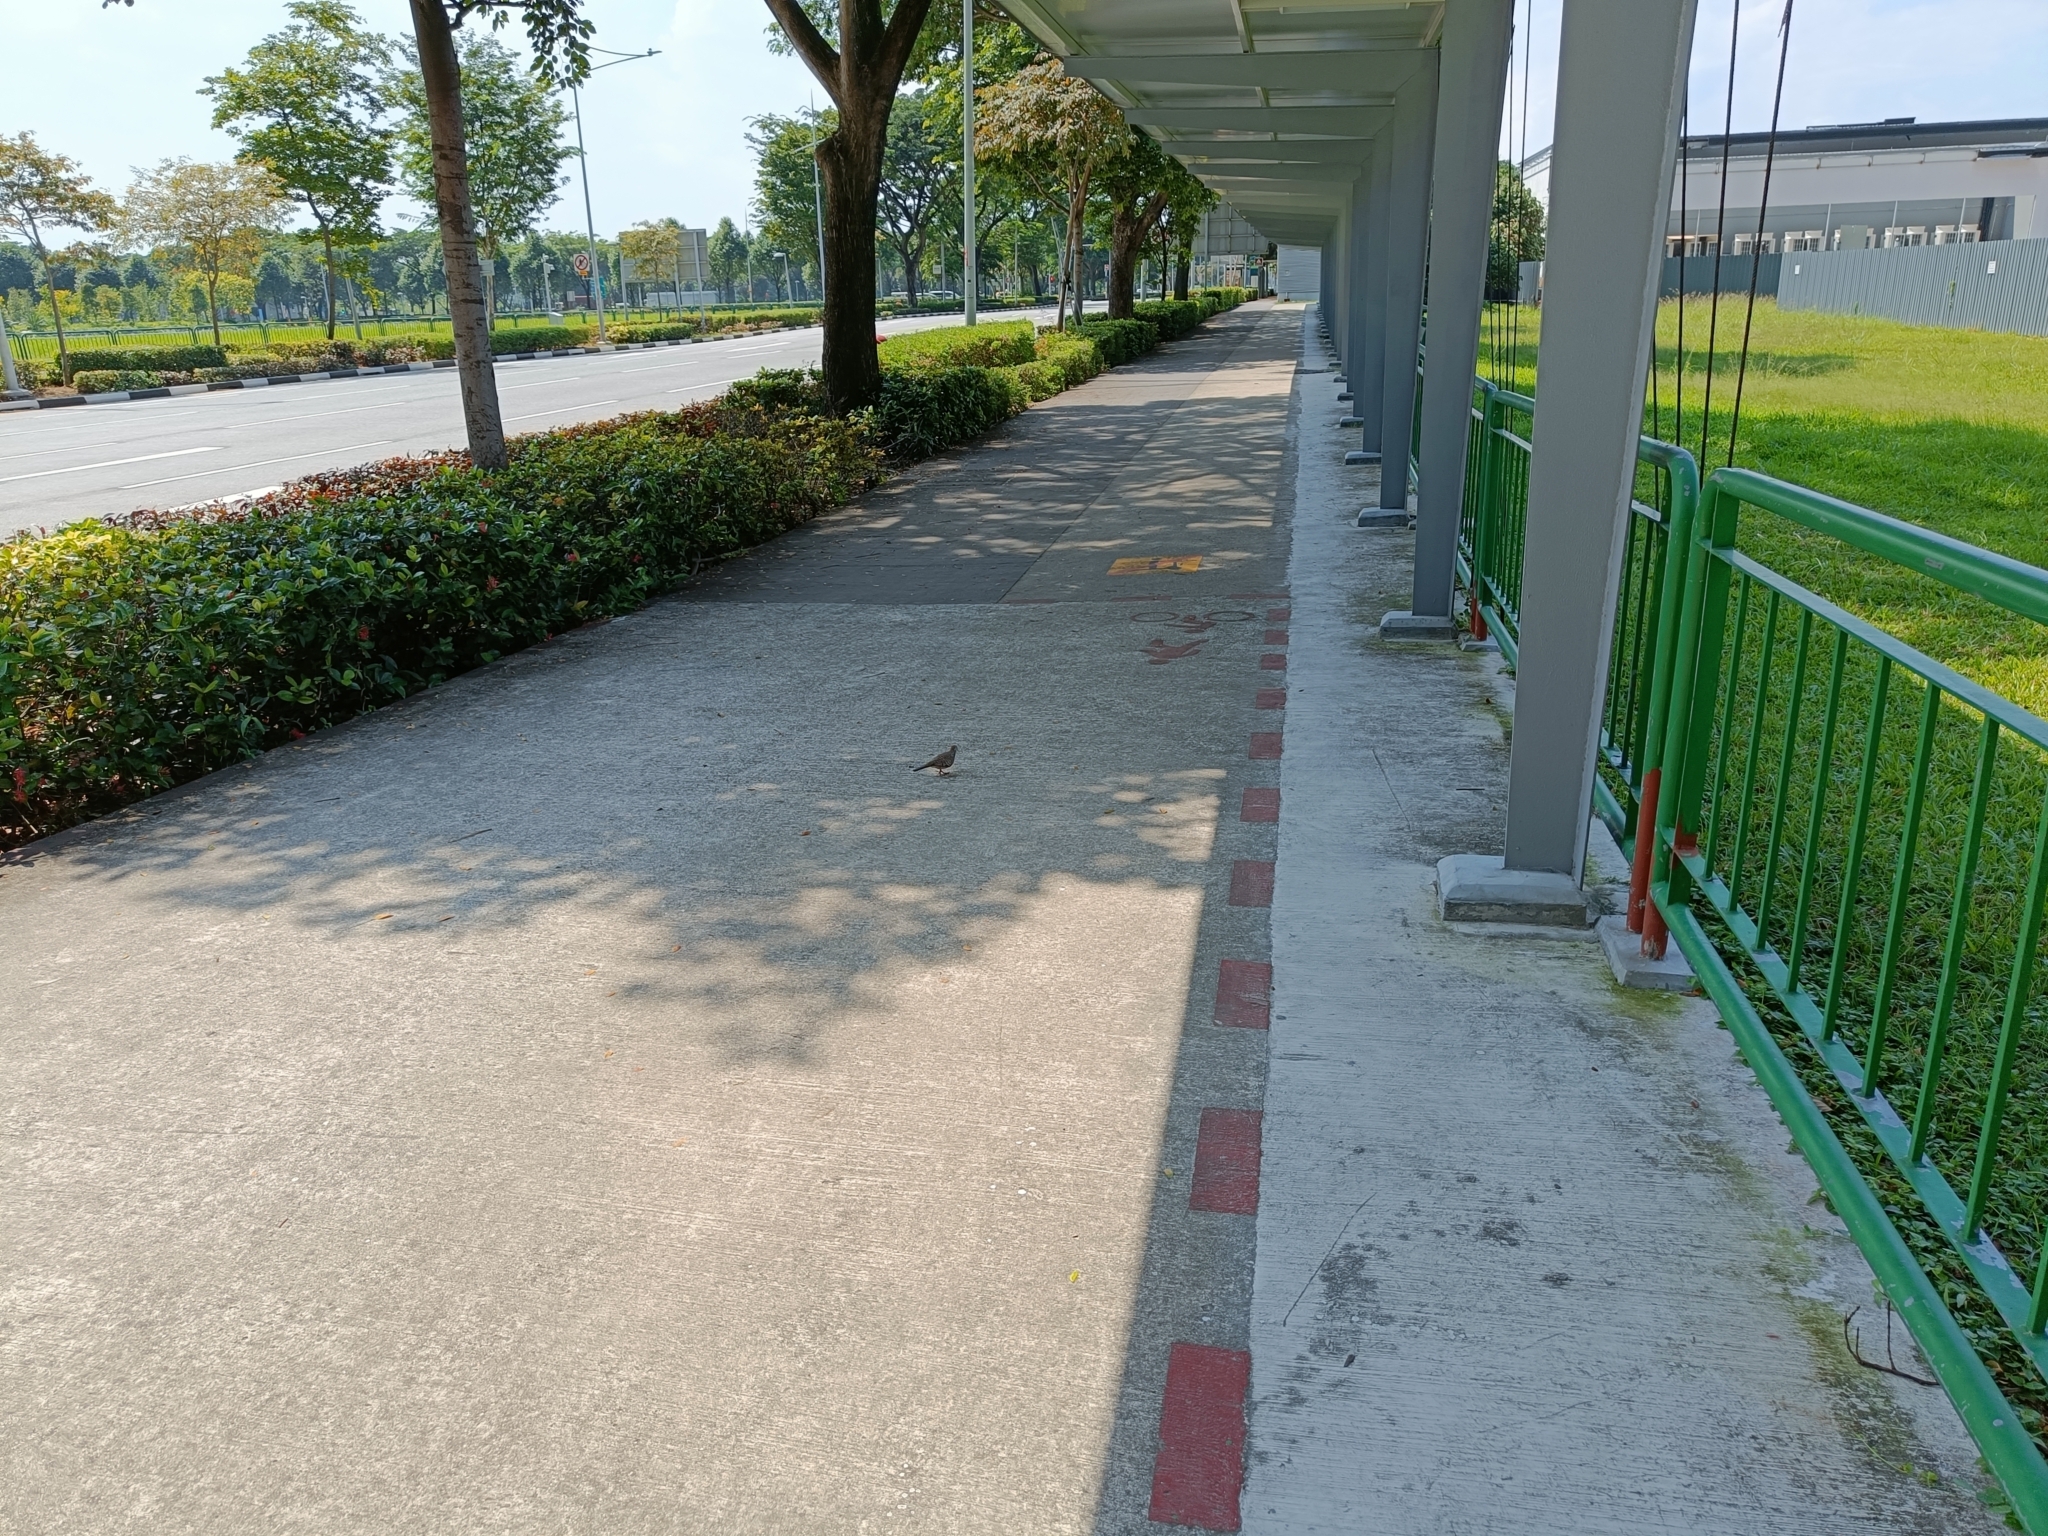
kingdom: Animalia
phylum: Chordata
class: Aves
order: Columbiformes
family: Columbidae
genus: Geopelia
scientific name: Geopelia striata
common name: Zebra dove
